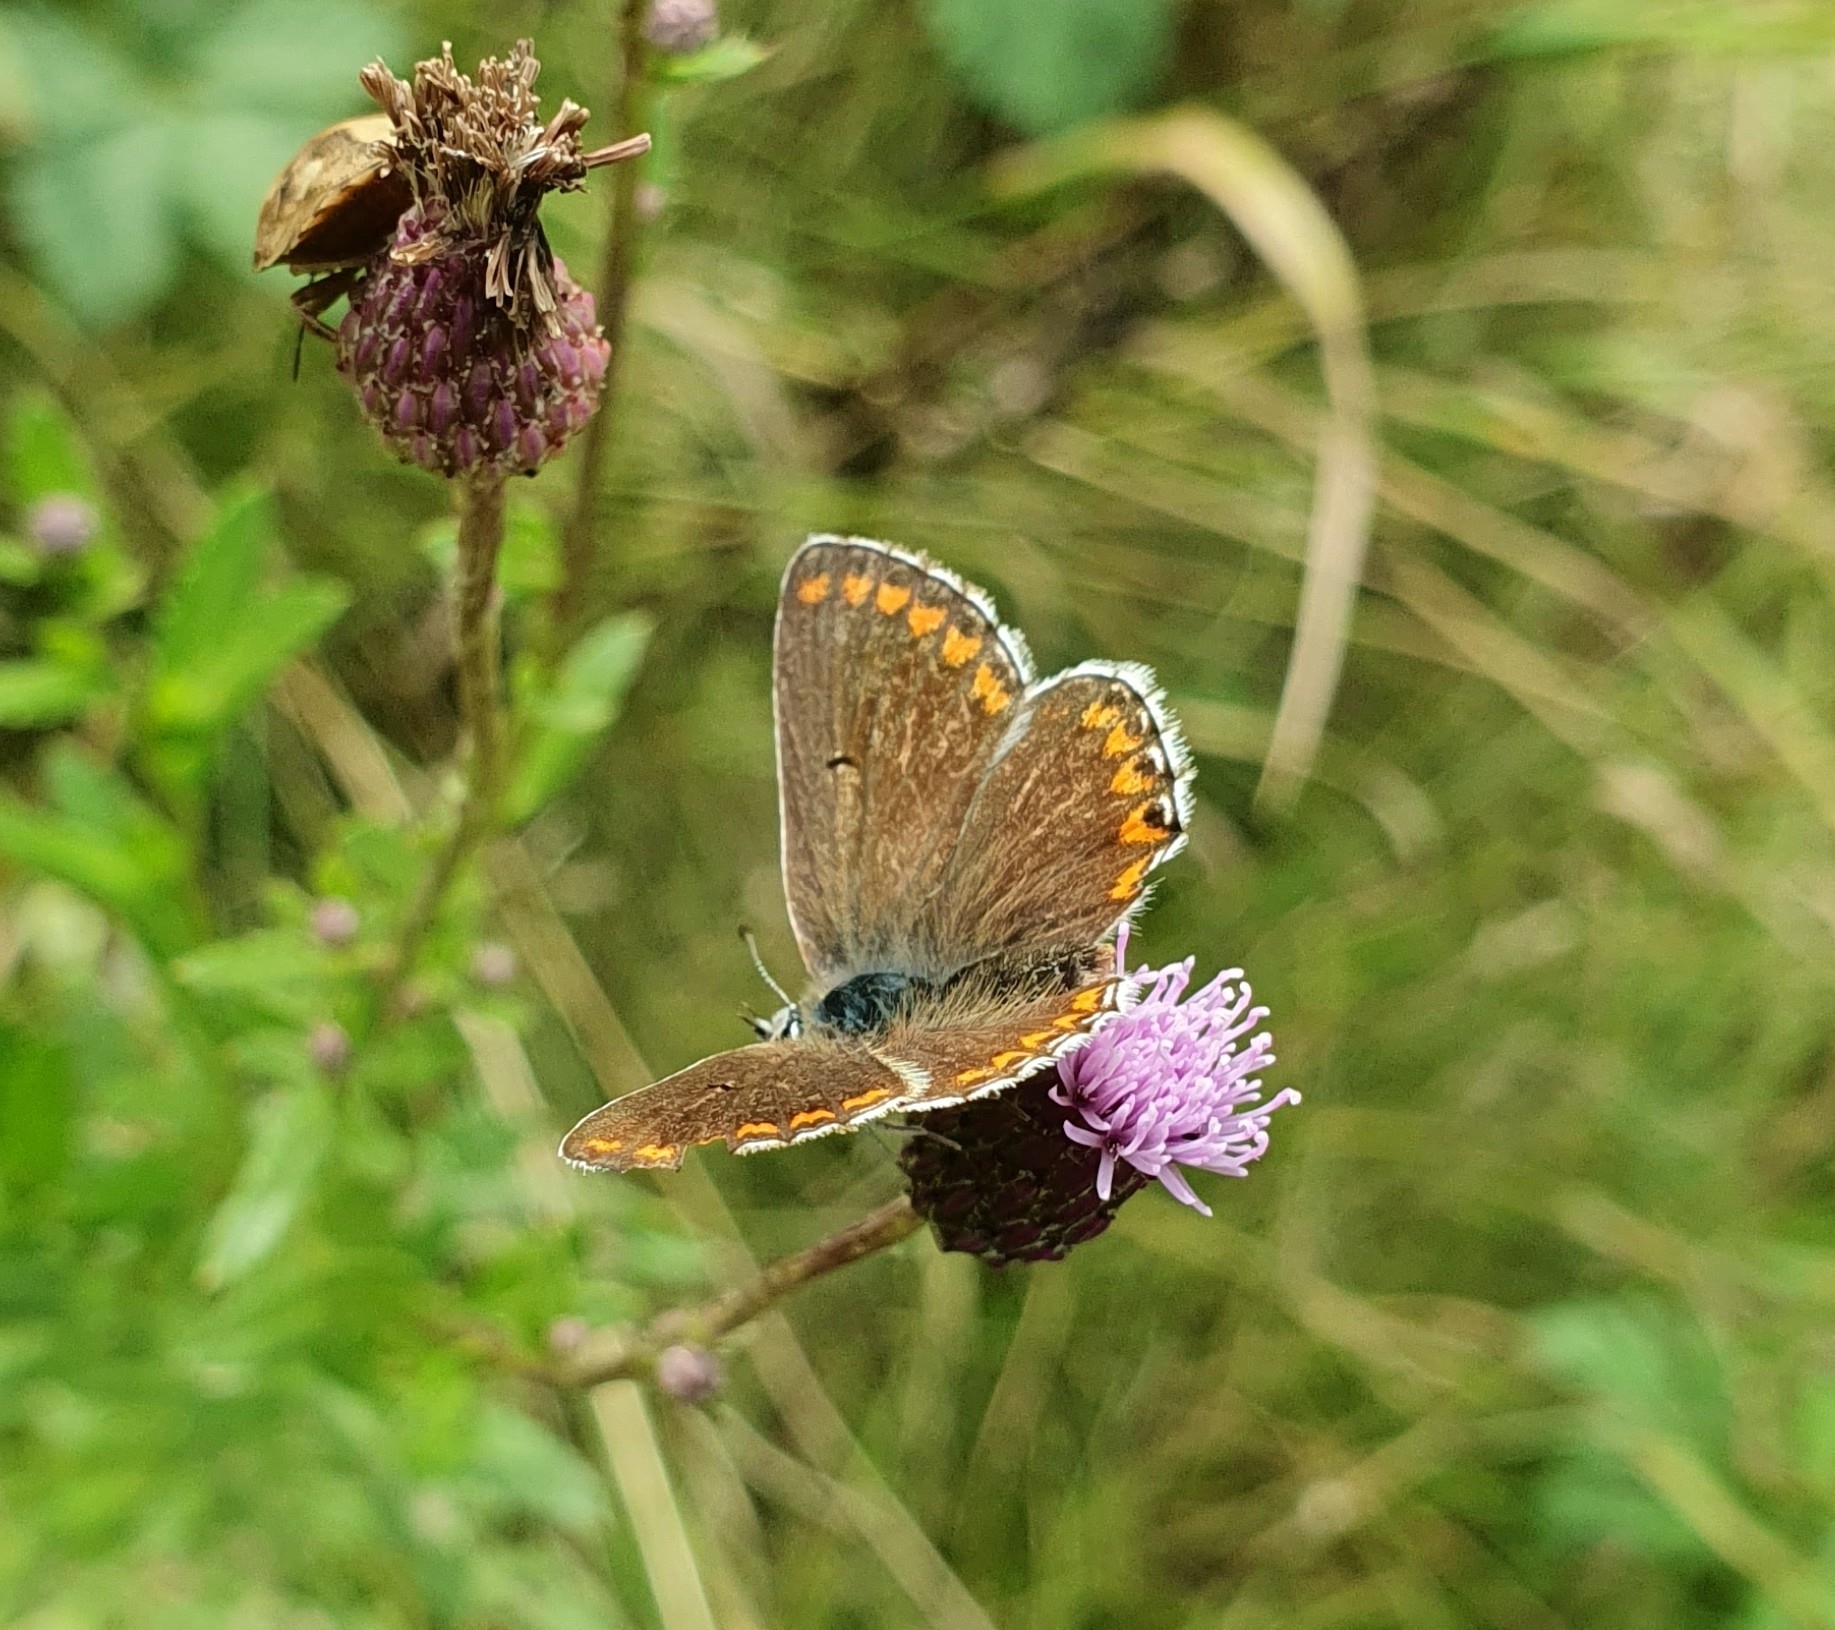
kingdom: Animalia
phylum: Arthropoda
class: Insecta
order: Lepidoptera
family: Lycaenidae
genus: Aricia
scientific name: Aricia agestis
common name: Brown argus
